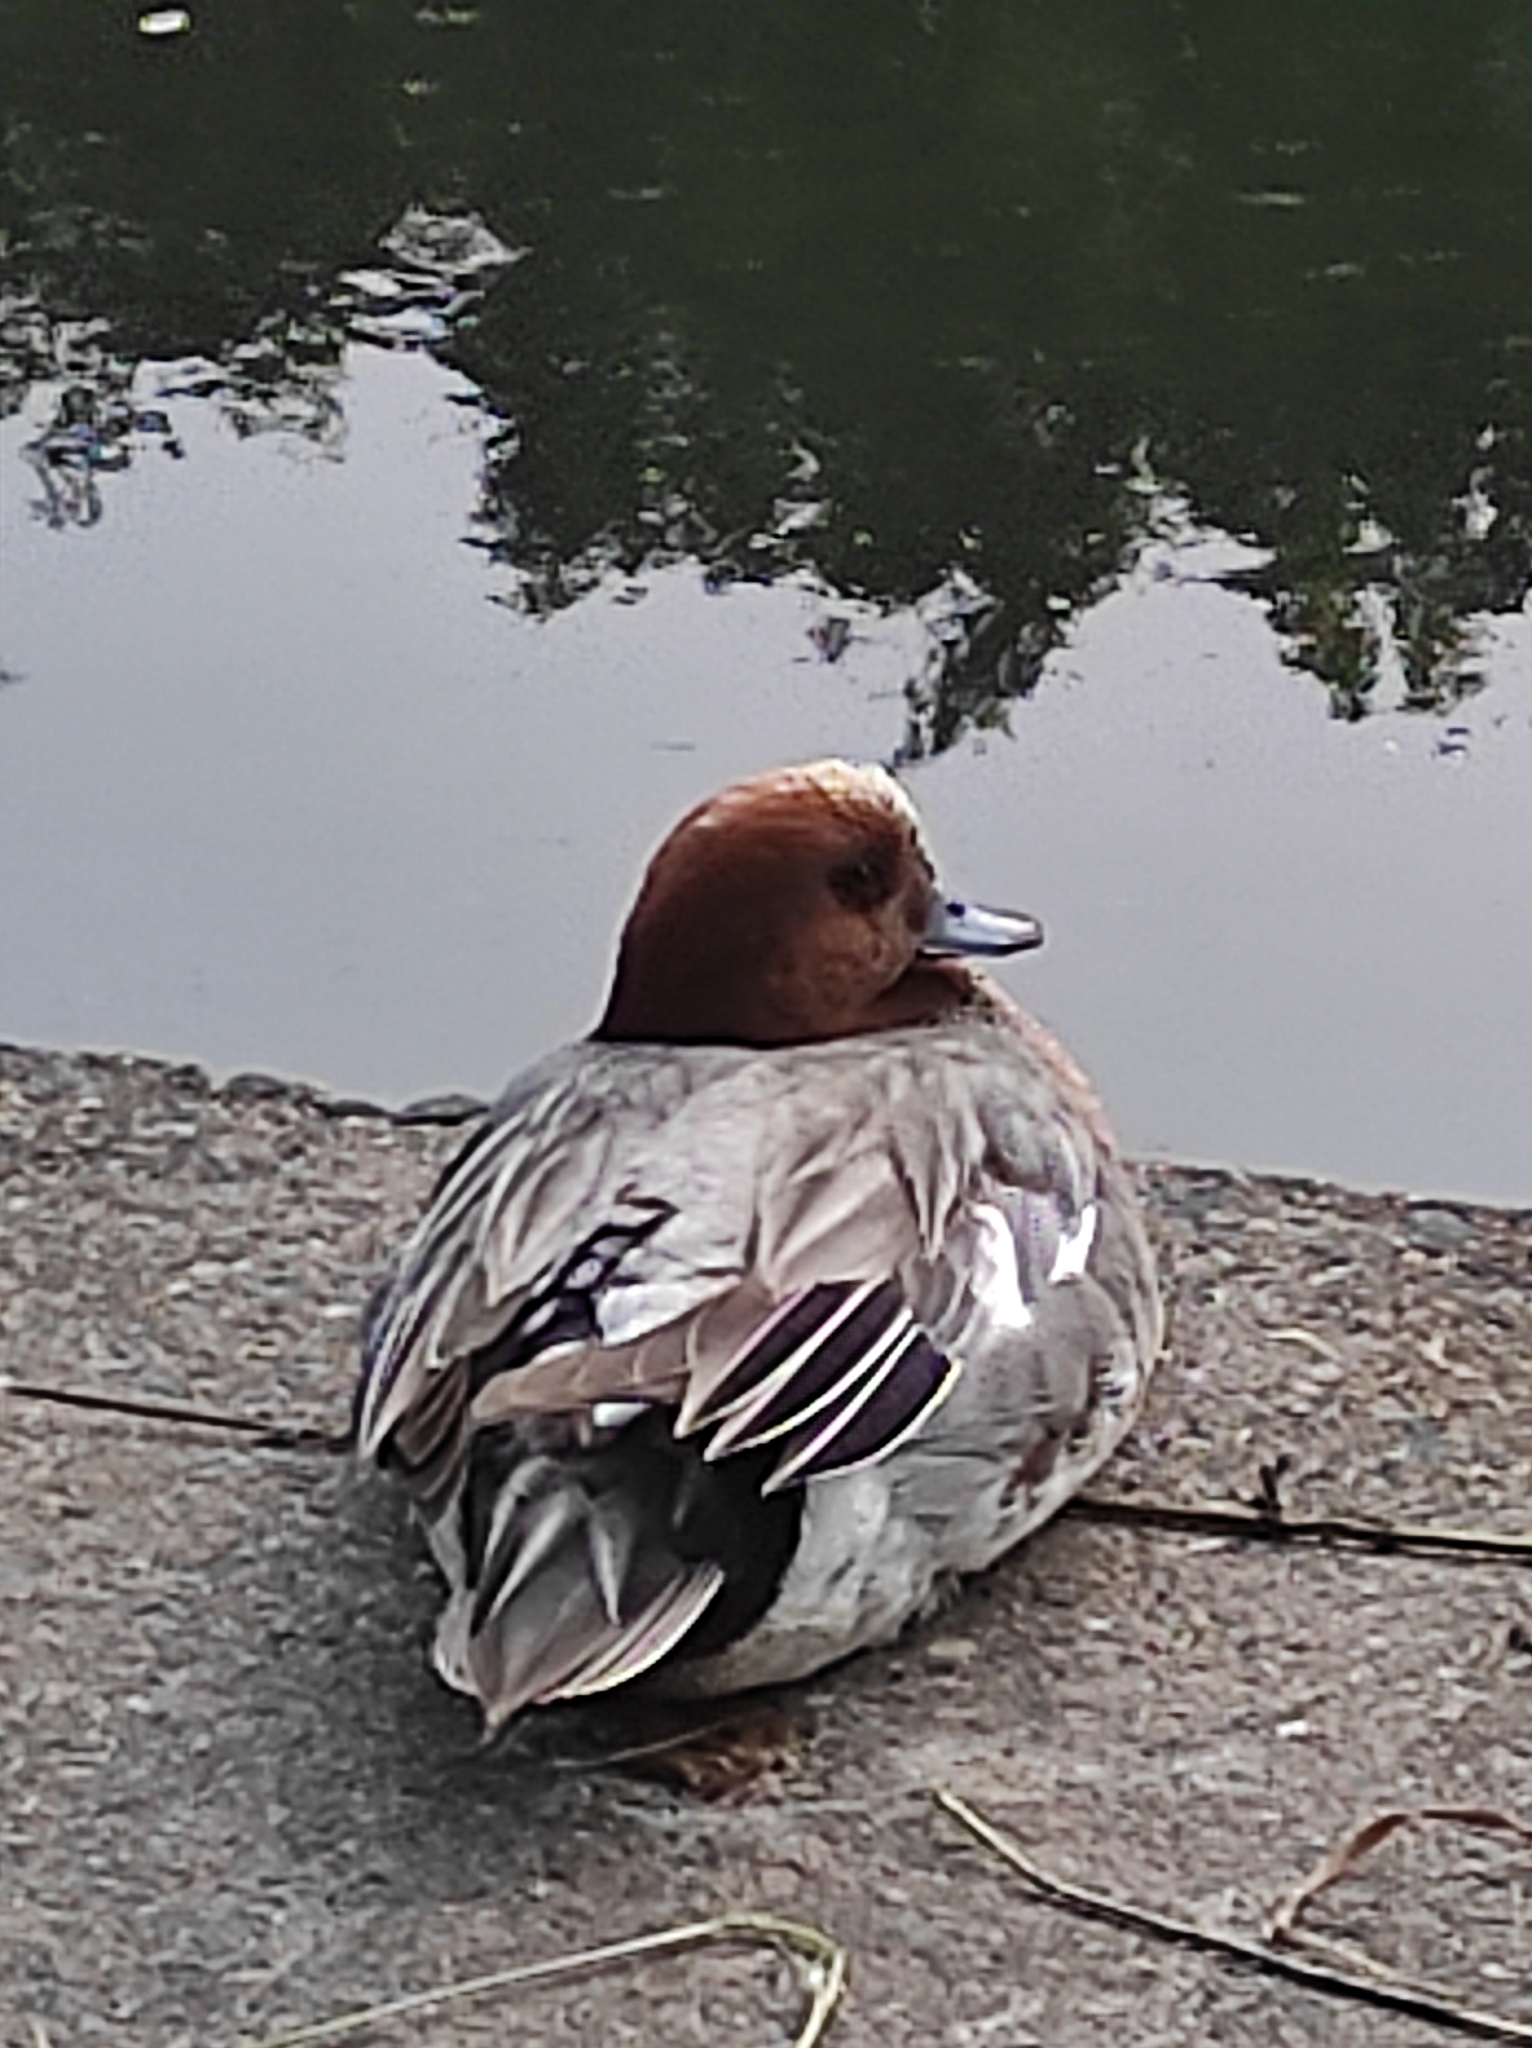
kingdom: Animalia
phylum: Chordata
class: Aves
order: Anseriformes
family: Anatidae
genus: Mareca
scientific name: Mareca penelope
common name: Eurasian wigeon
